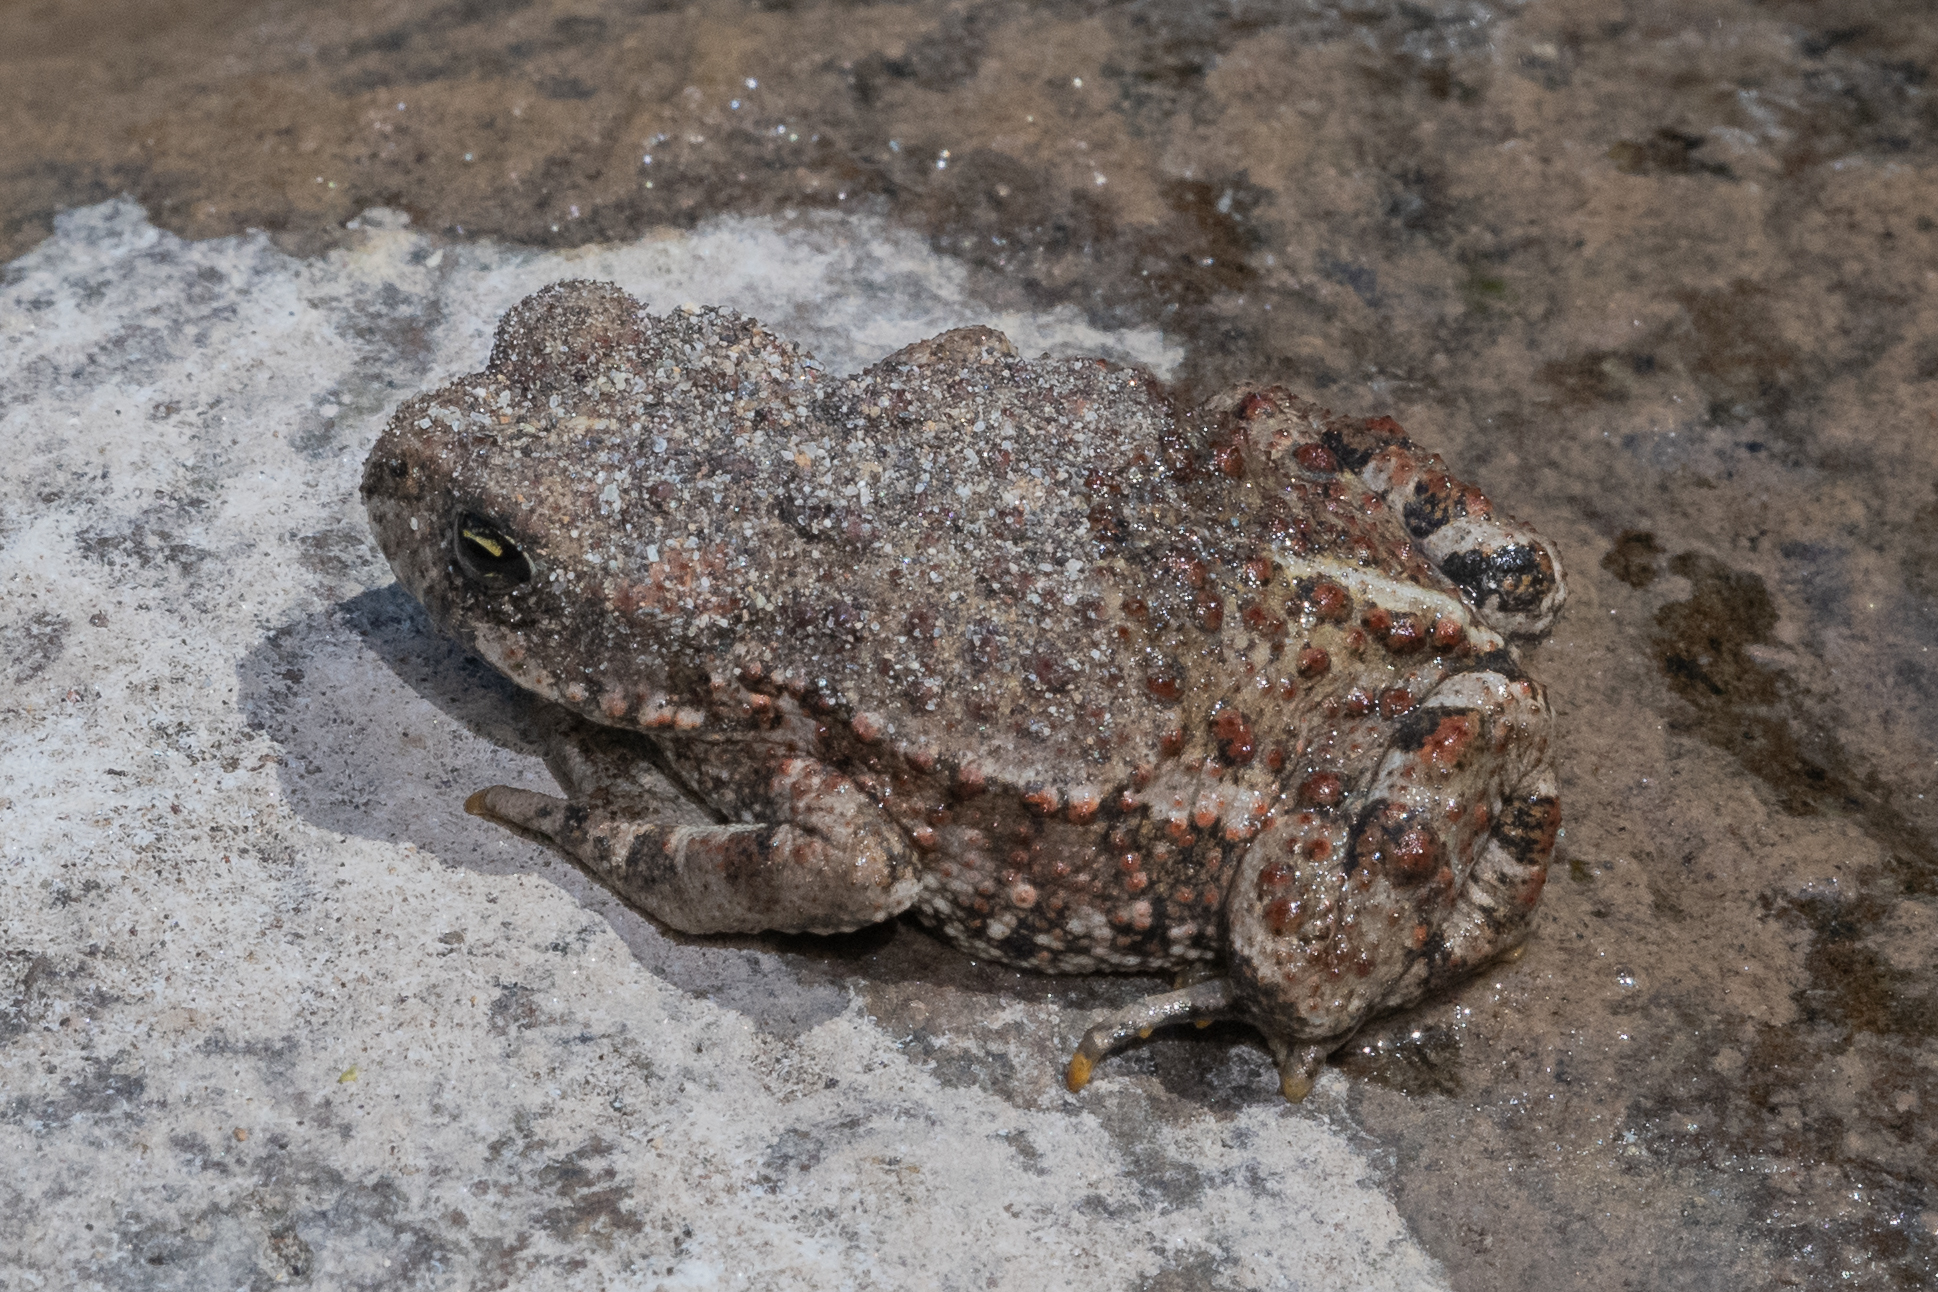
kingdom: Animalia
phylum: Chordata
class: Amphibia
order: Anura
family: Bufonidae
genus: Anaxyrus
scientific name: Anaxyrus boreas
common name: Western toad
